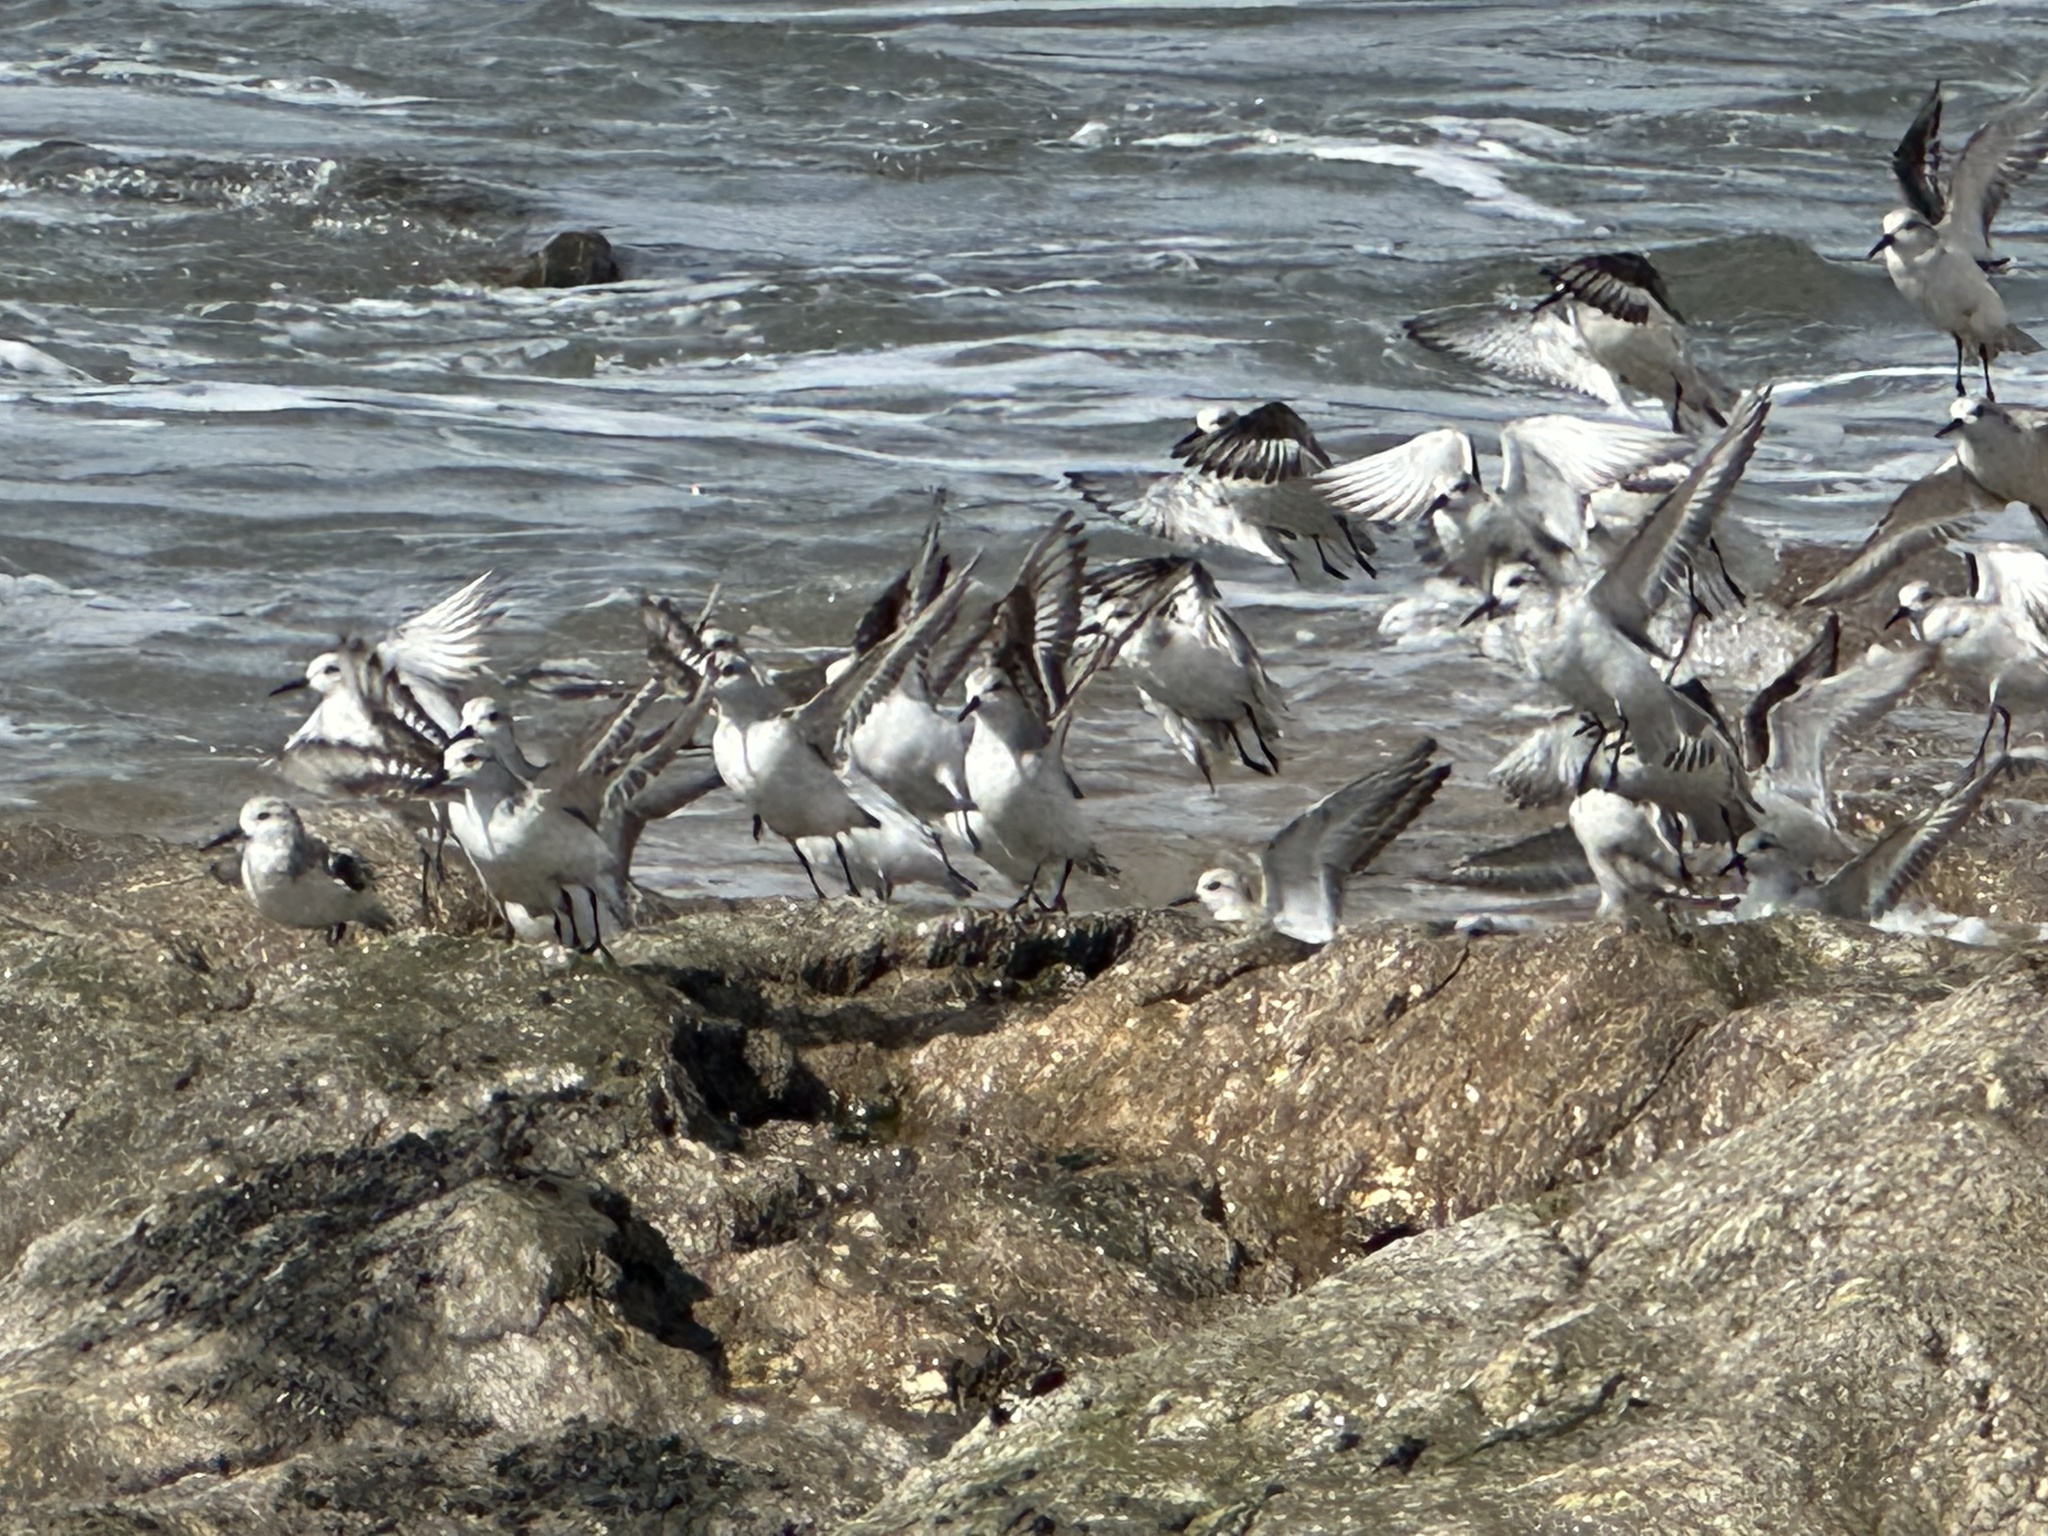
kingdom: Animalia
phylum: Chordata
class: Aves
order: Charadriiformes
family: Scolopacidae
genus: Calidris
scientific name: Calidris alba
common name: Sanderling
